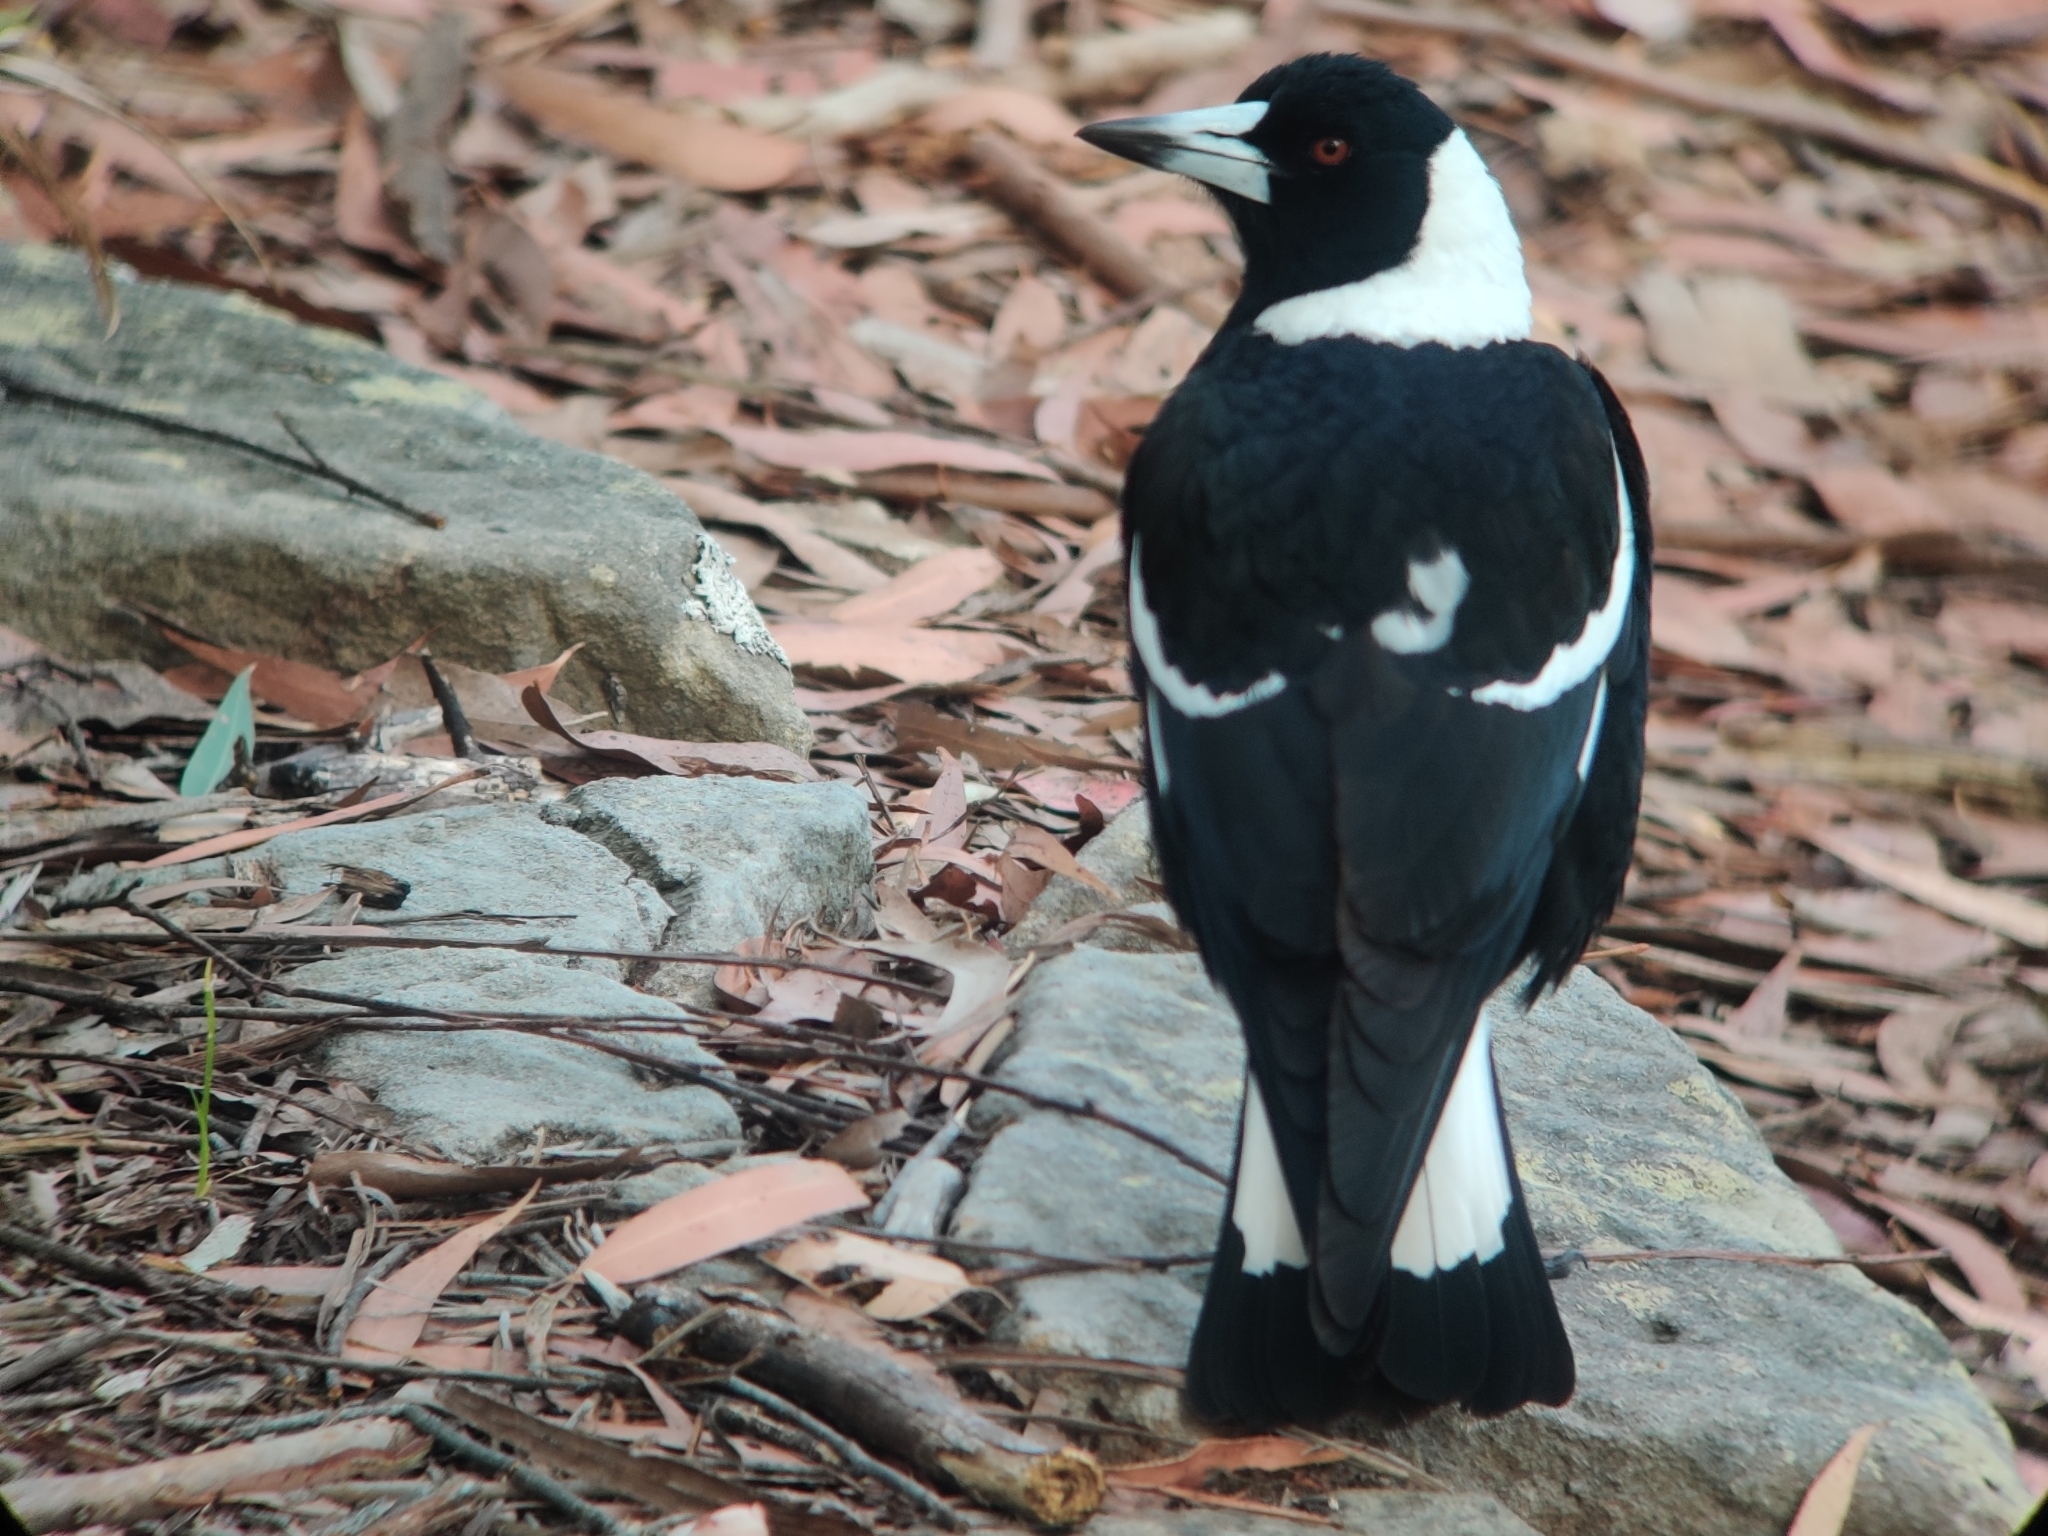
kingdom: Animalia
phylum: Chordata
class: Aves
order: Passeriformes
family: Cracticidae
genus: Gymnorhina
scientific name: Gymnorhina tibicen
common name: Australian magpie
